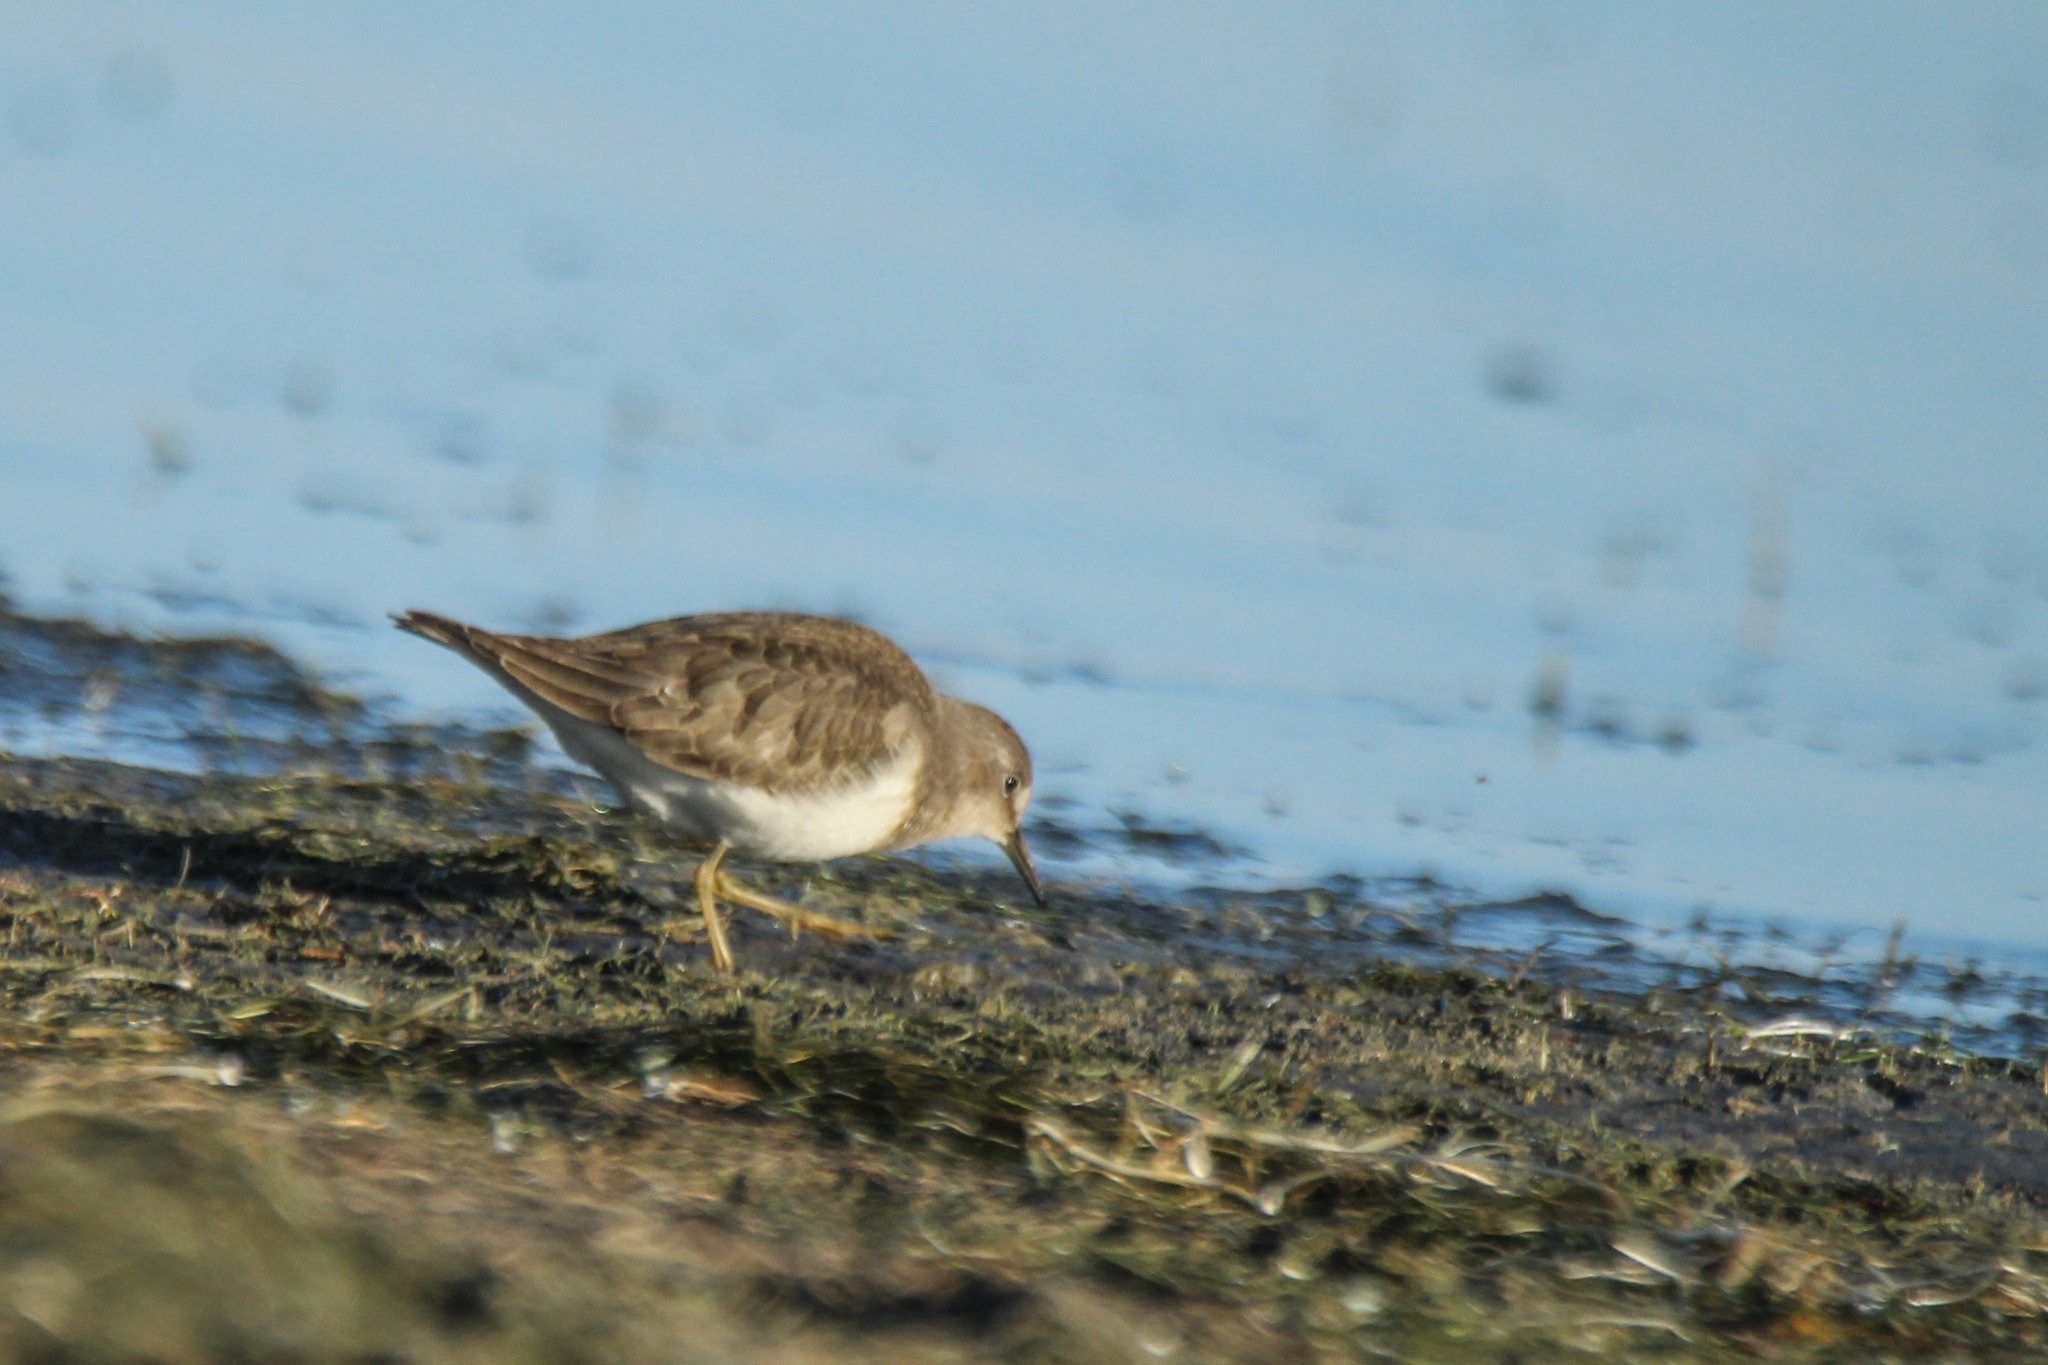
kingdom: Animalia
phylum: Chordata
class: Aves
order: Charadriiformes
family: Scolopacidae
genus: Calidris
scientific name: Calidris temminckii
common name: Temminck's stint
